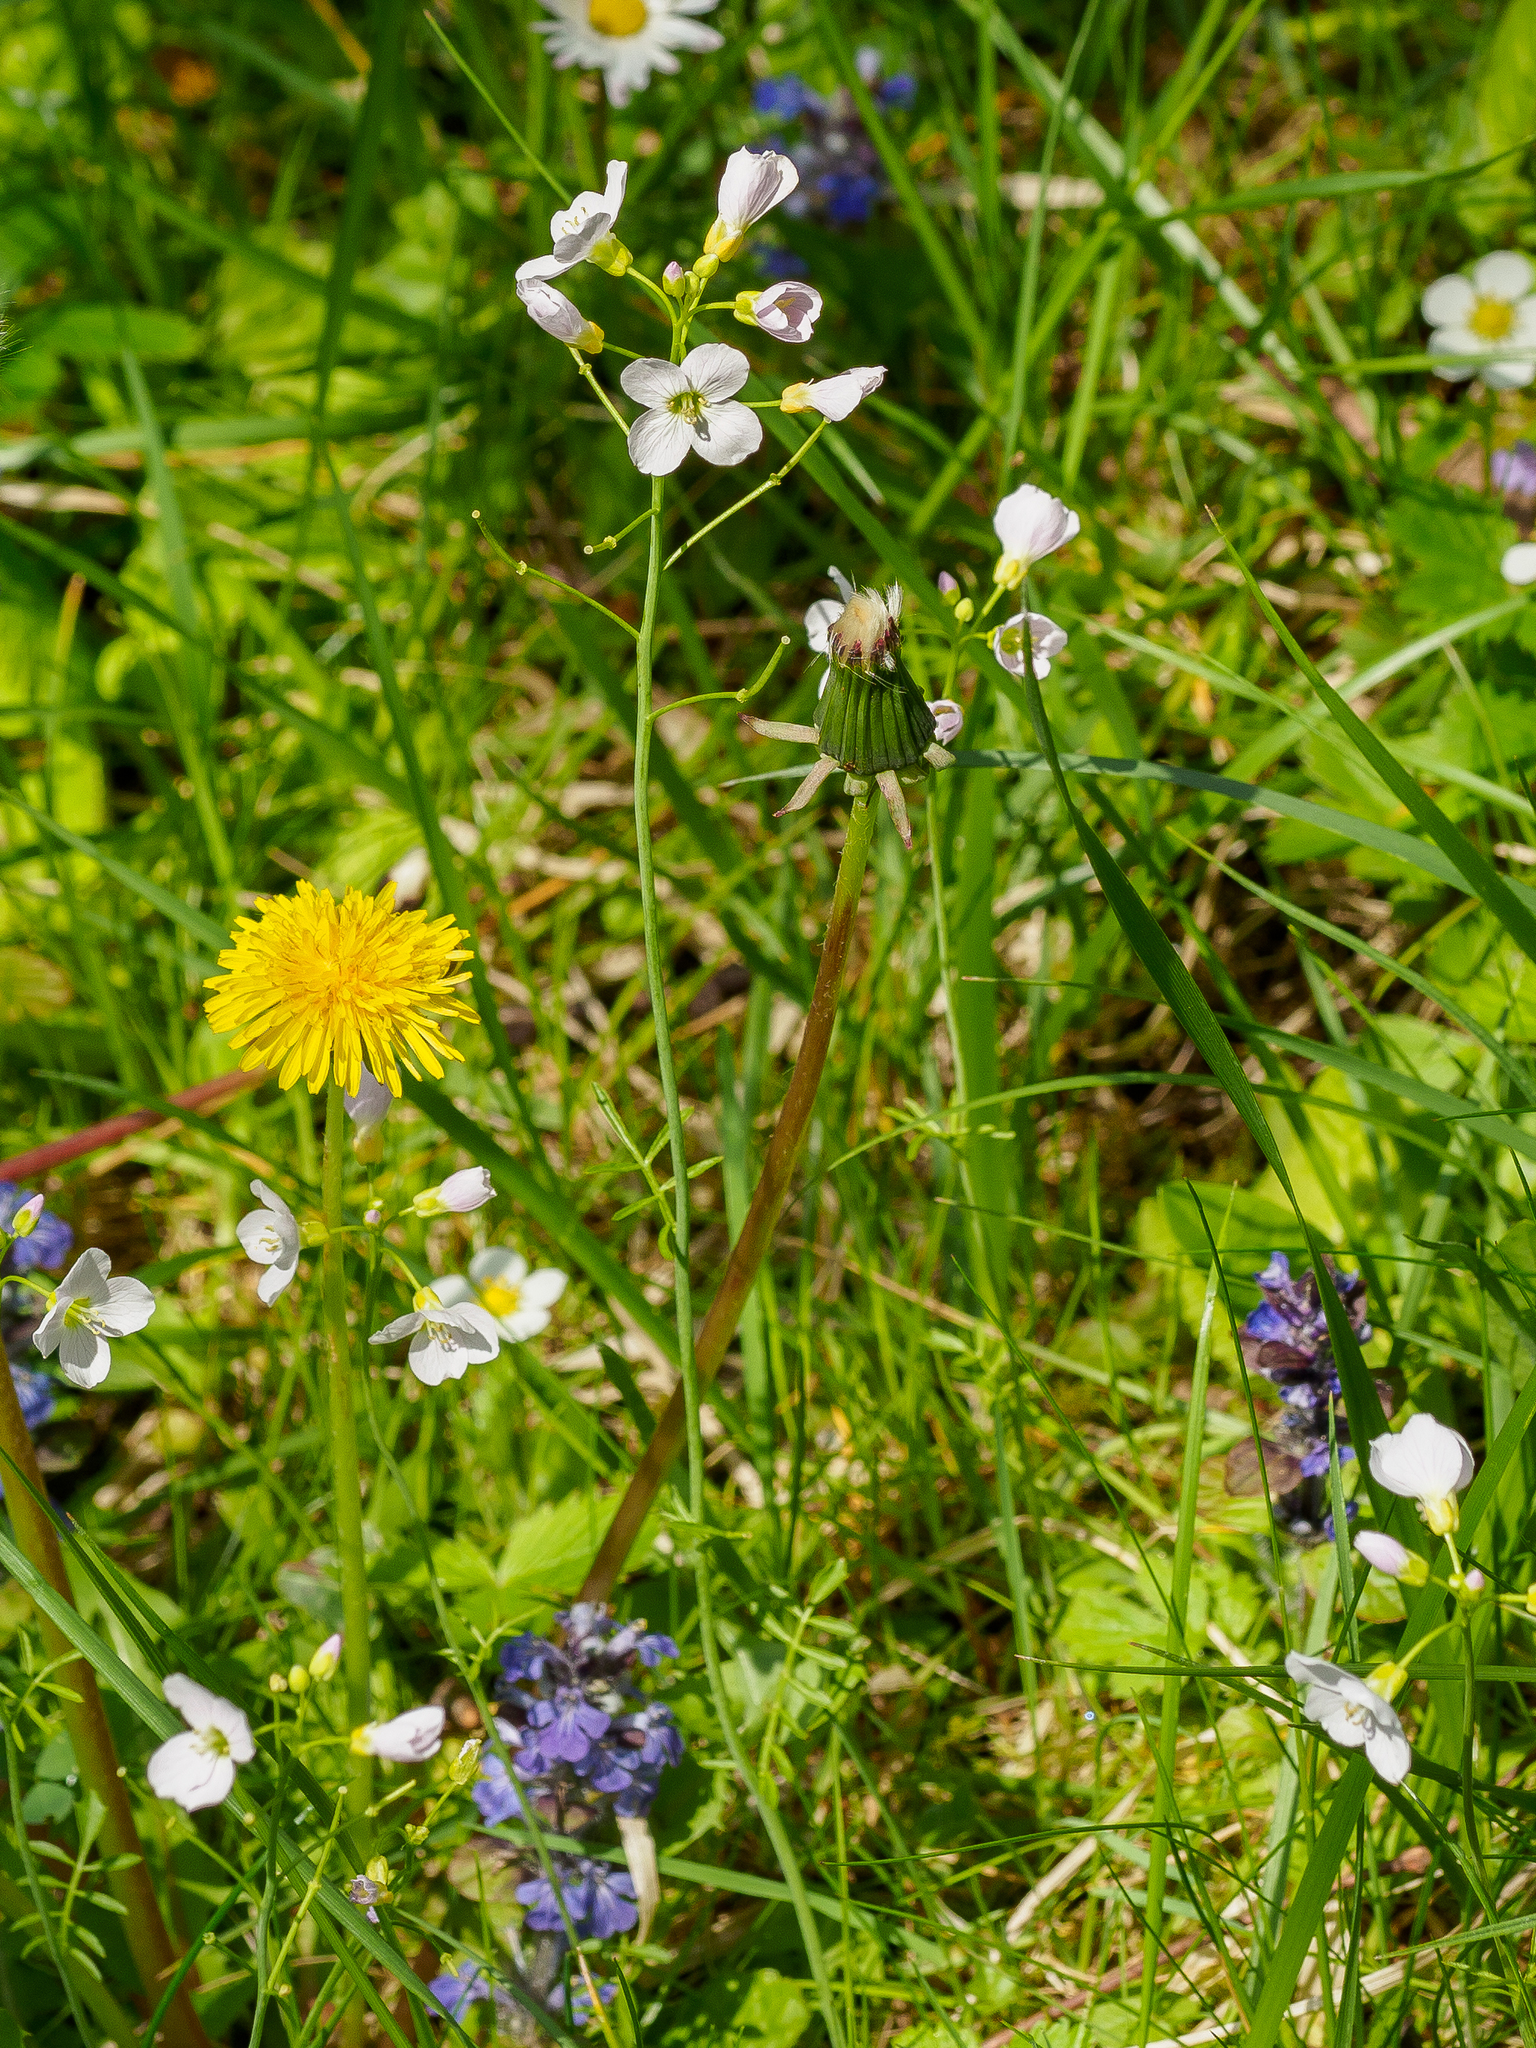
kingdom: Plantae
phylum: Tracheophyta
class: Magnoliopsida
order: Brassicales
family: Brassicaceae
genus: Cardamine
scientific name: Cardamine pratensis
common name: Cuckoo flower
